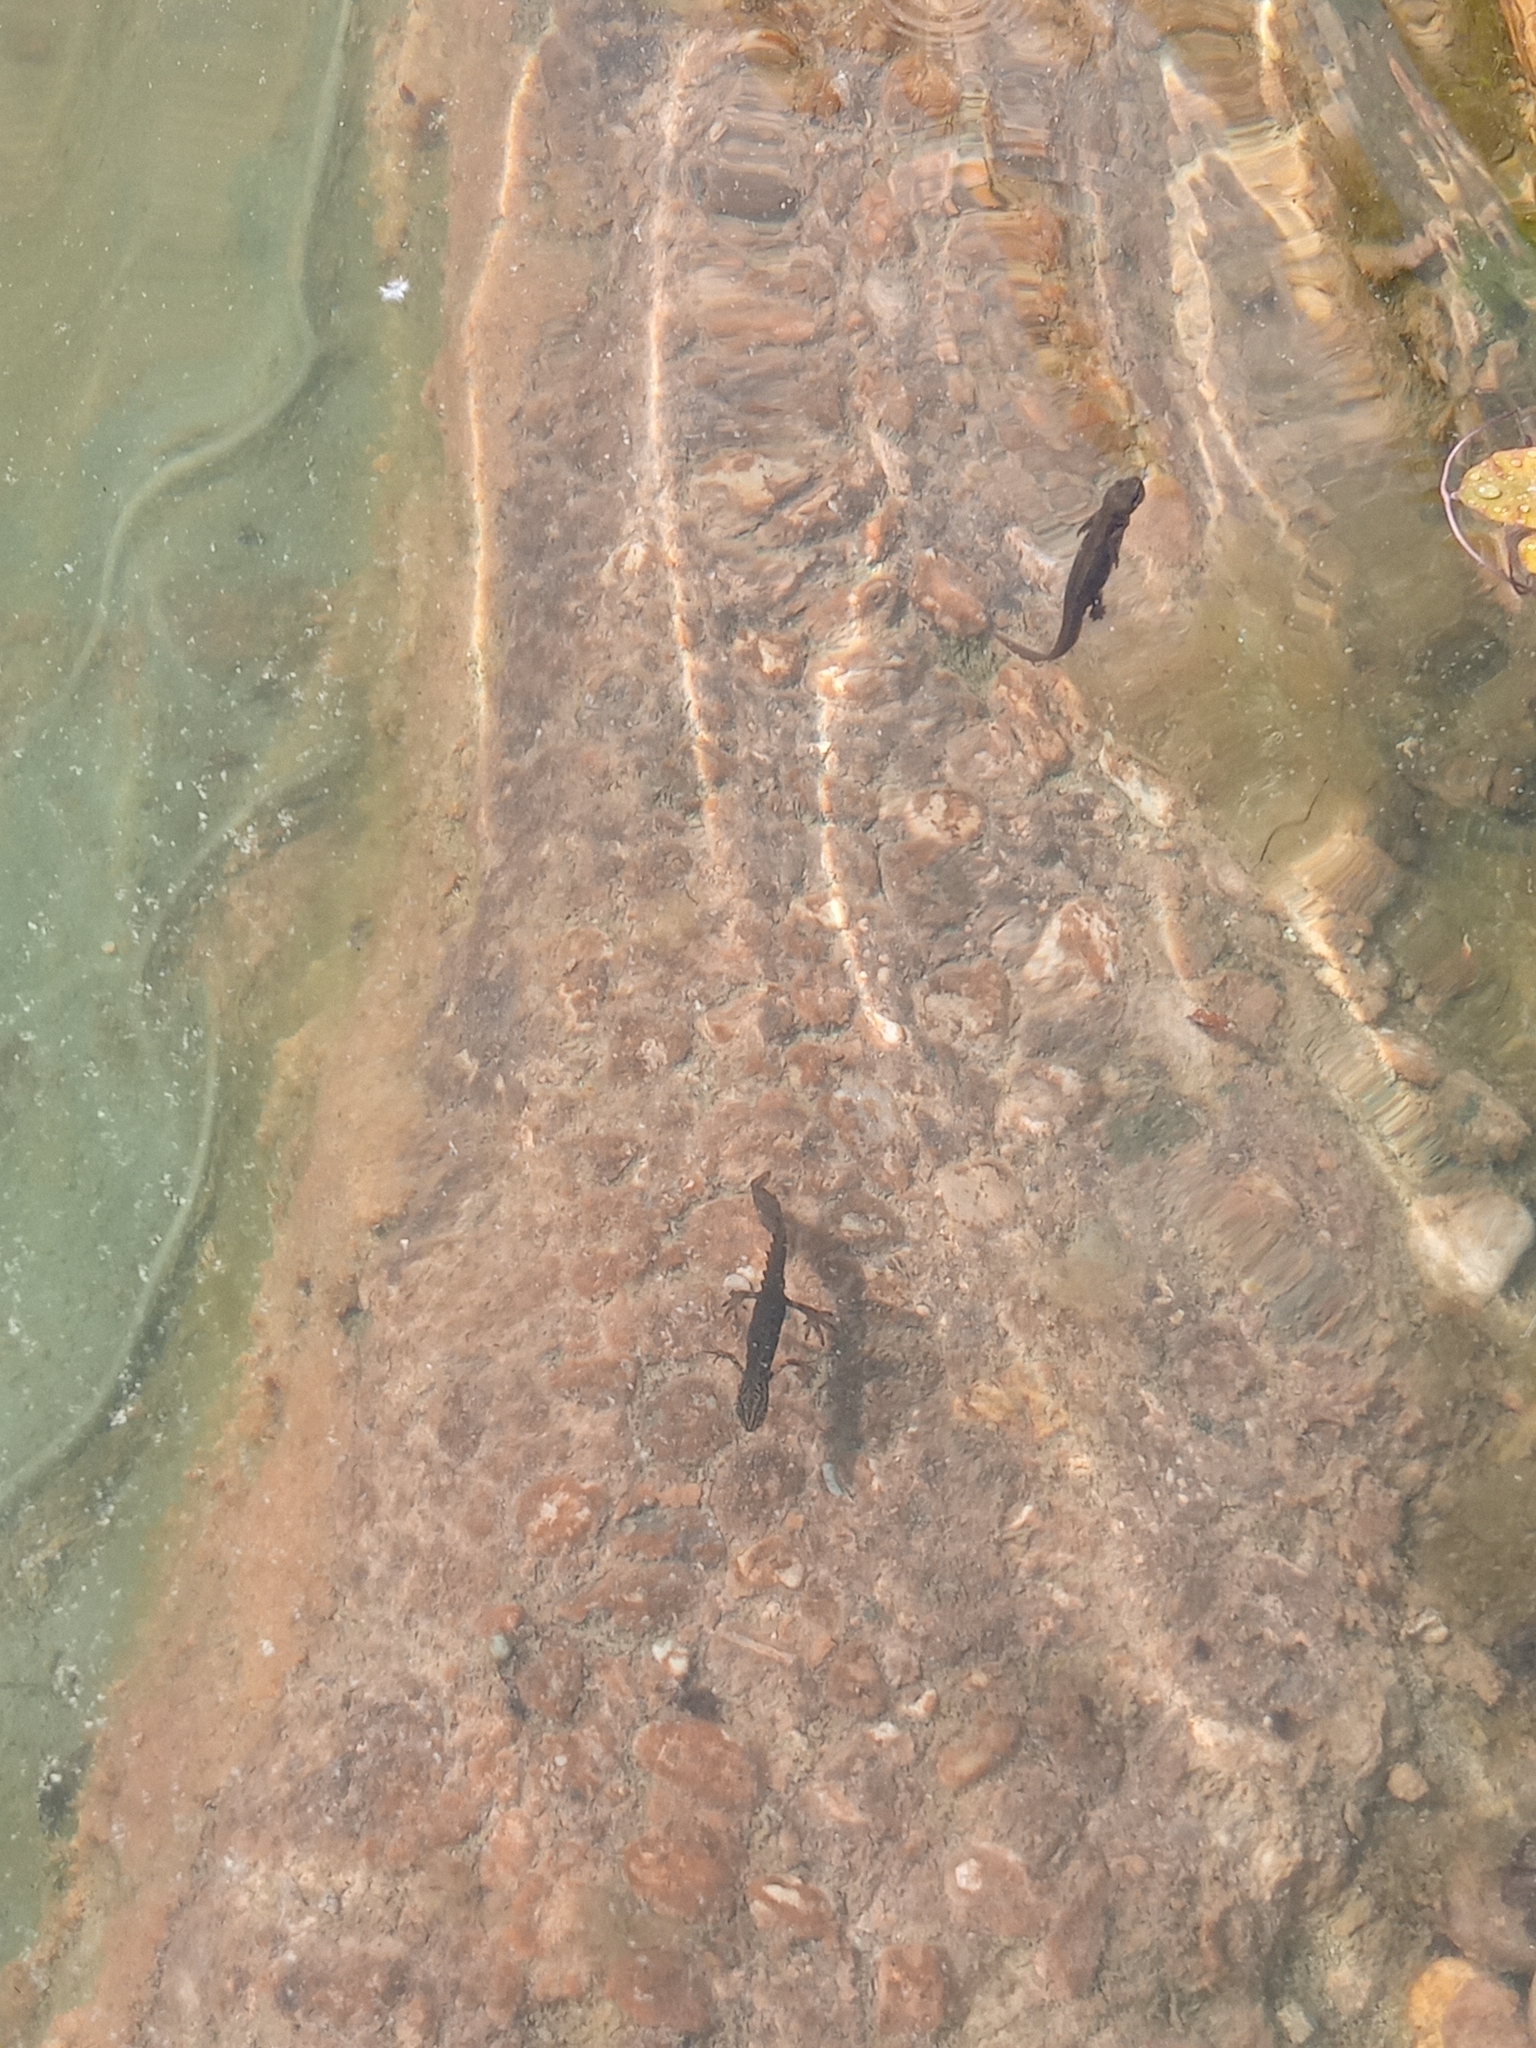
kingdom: Animalia
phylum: Chordata
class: Amphibia
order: Caudata
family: Salamandridae
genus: Lissotriton
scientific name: Lissotriton vulgaris
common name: Smooth newt
